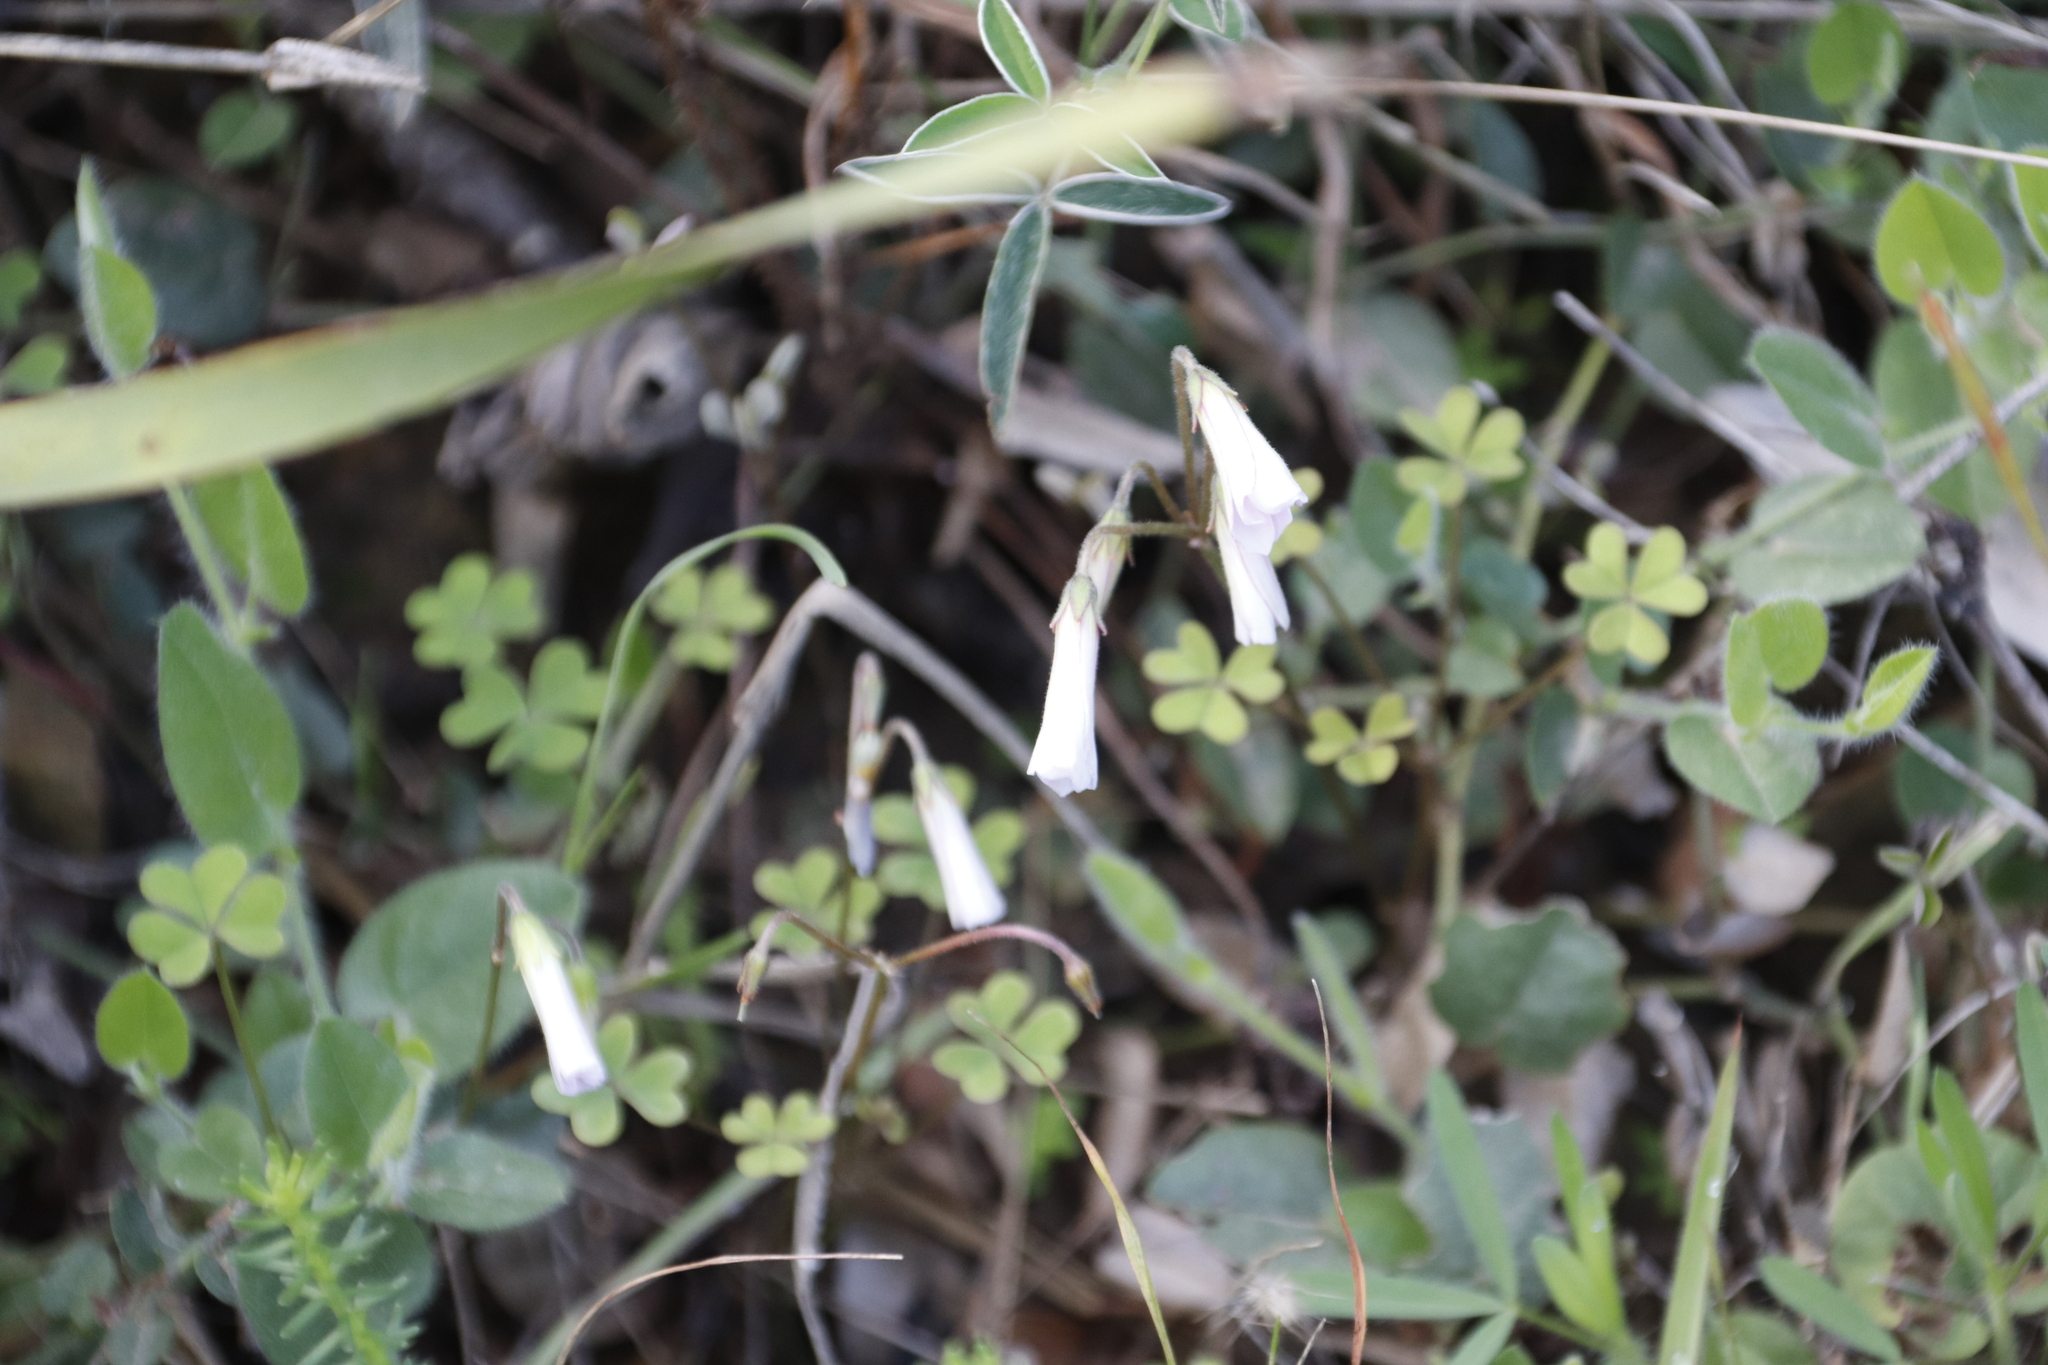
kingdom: Plantae
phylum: Tracheophyta
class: Magnoliopsida
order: Oxalidales
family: Oxalidaceae
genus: Oxalis
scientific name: Oxalis
